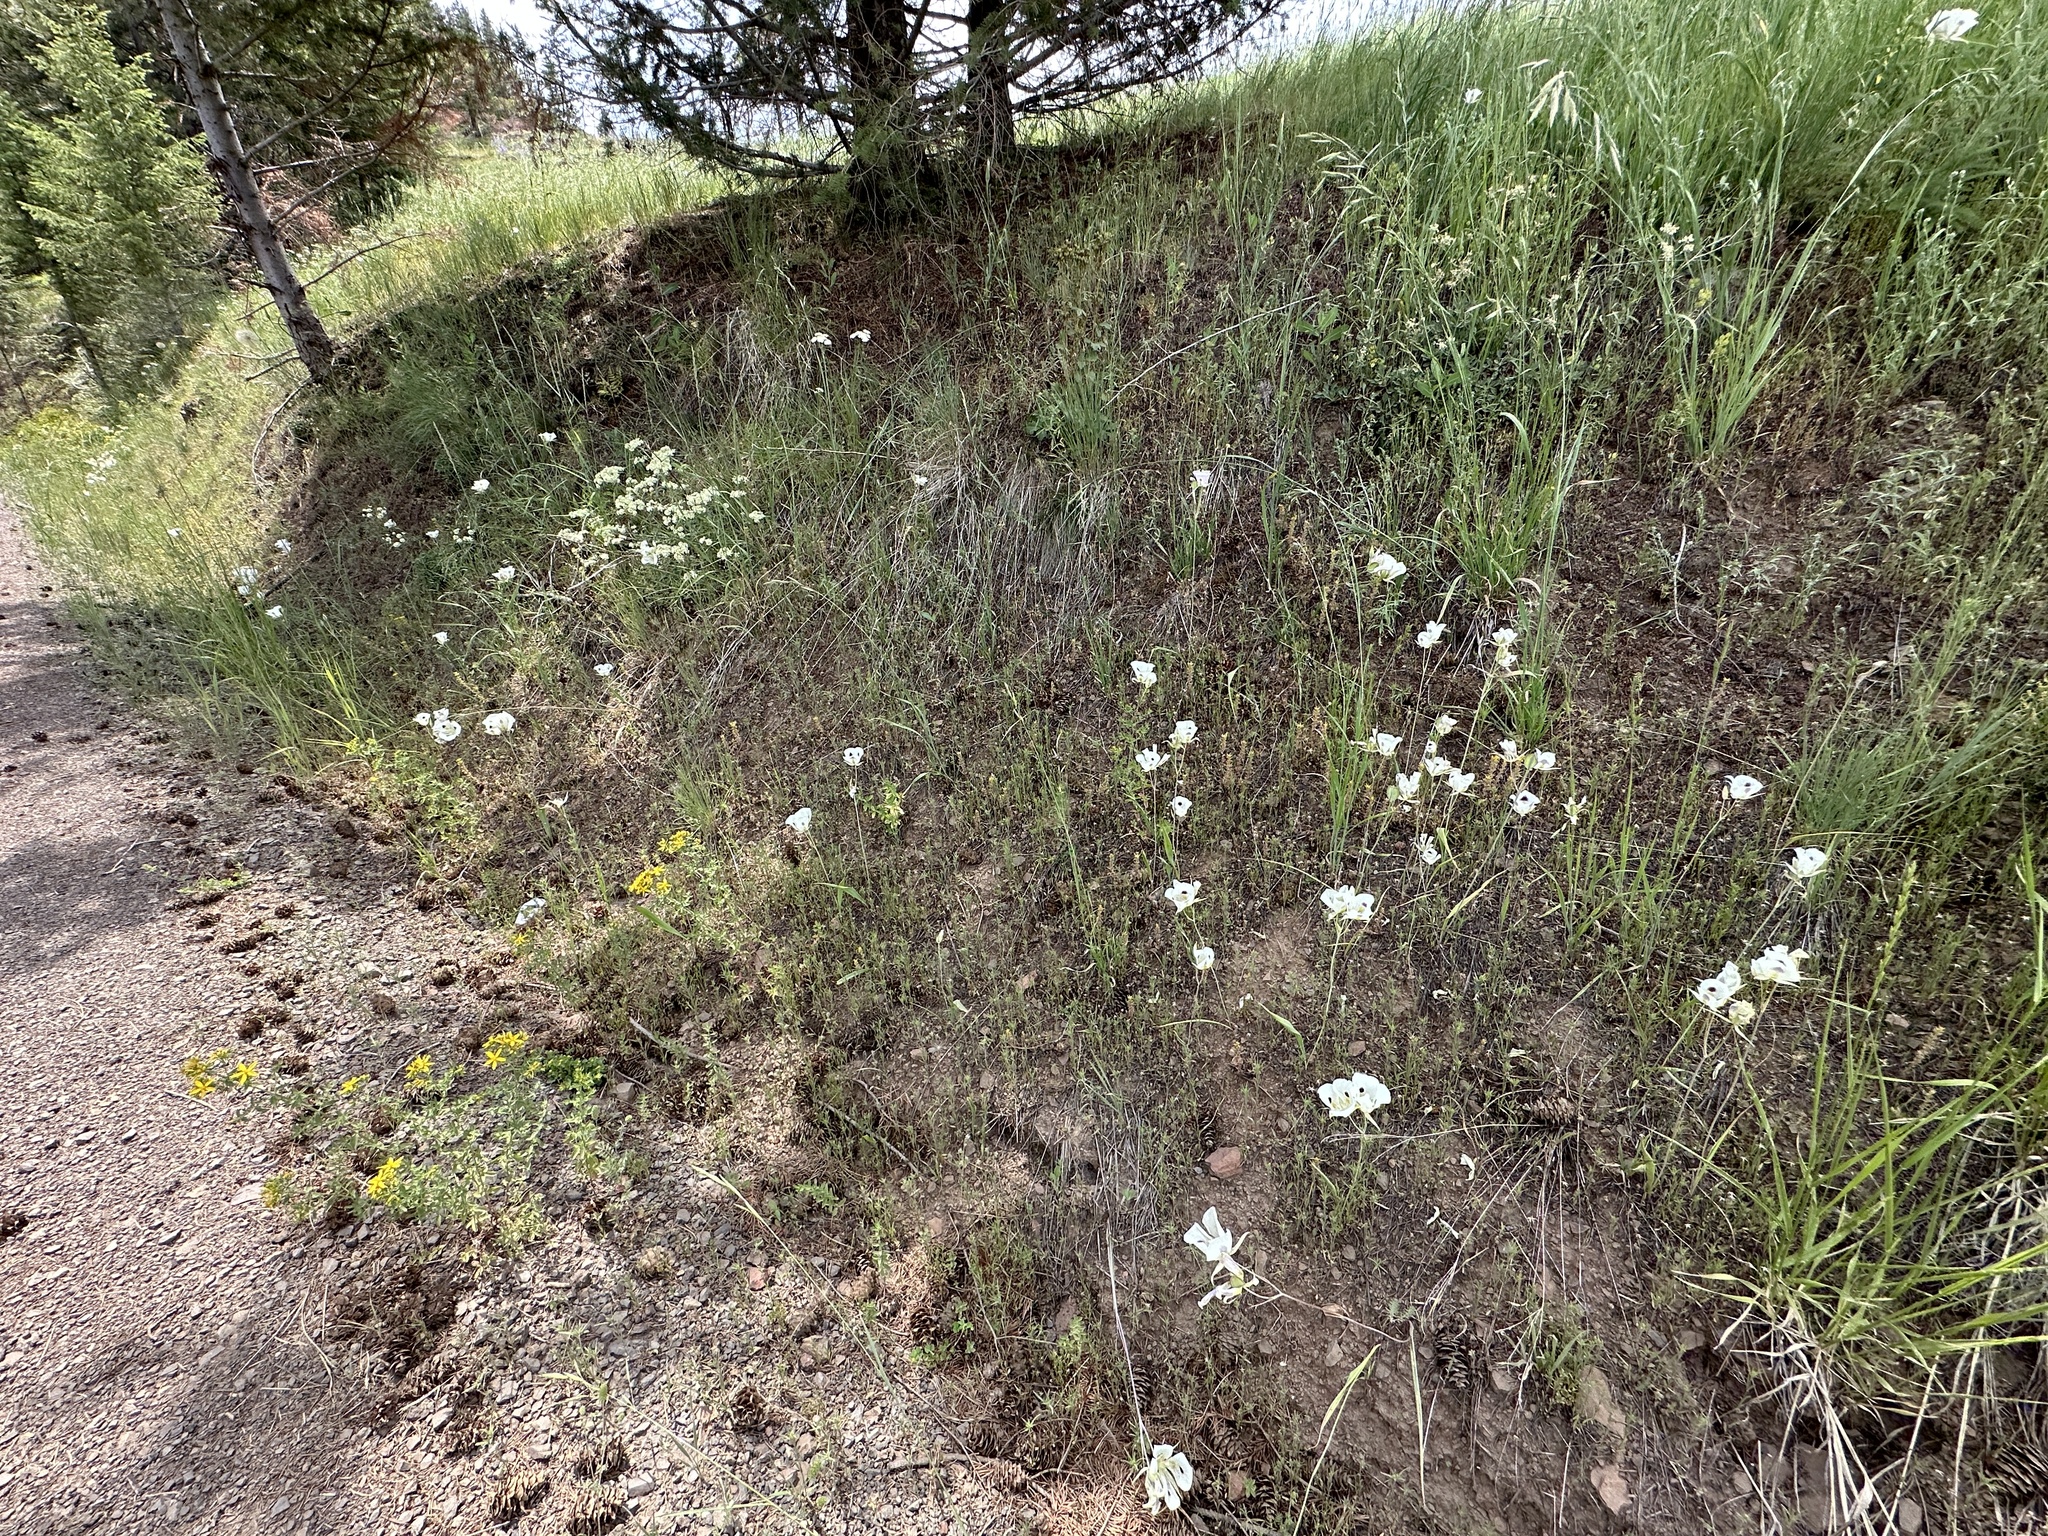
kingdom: Plantae
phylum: Tracheophyta
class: Liliopsida
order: Liliales
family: Liliaceae
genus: Calochortus
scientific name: Calochortus eurycarpus
